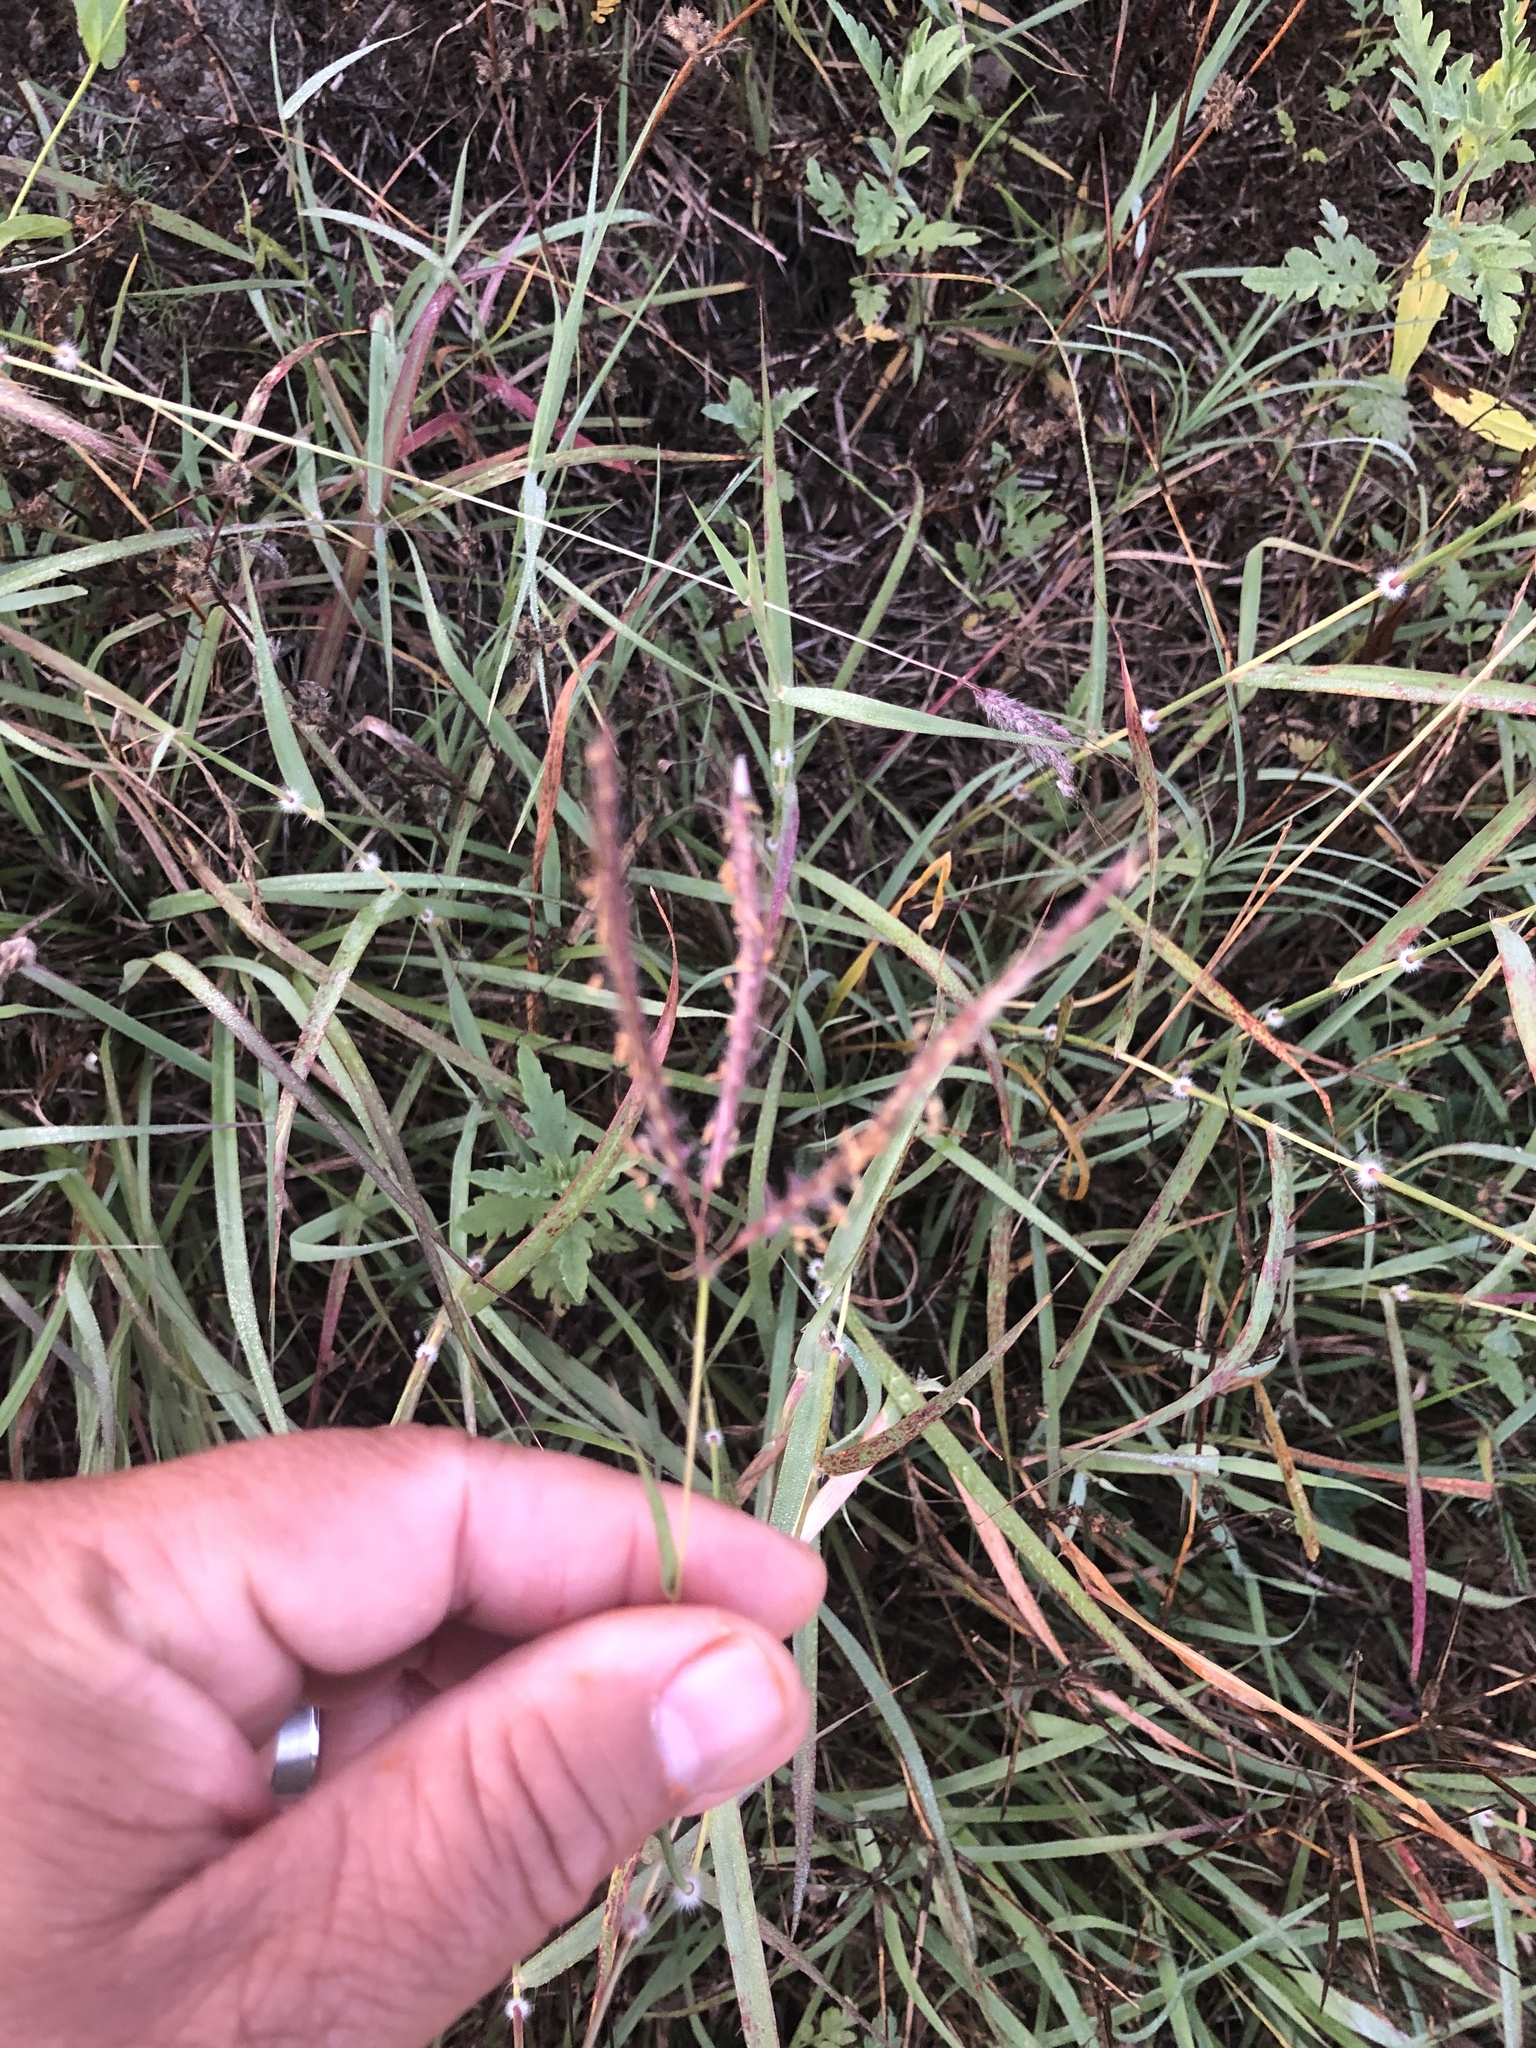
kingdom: Plantae
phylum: Tracheophyta
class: Liliopsida
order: Poales
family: Poaceae
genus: Dichanthium
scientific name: Dichanthium annulatum
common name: Kleberg's bluestem
